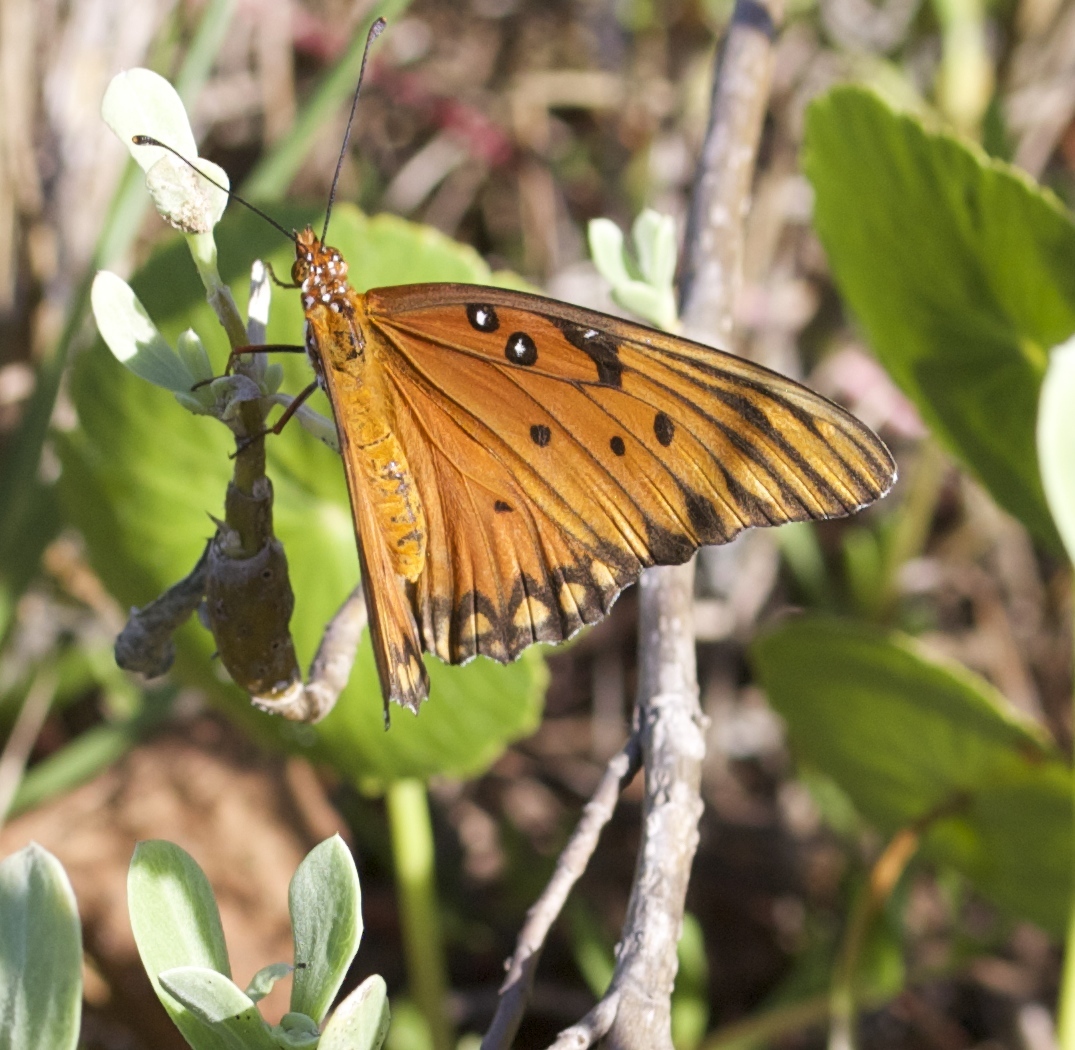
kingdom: Animalia
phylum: Arthropoda
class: Insecta
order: Lepidoptera
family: Nymphalidae
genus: Dione
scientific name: Dione vanillae
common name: Gulf fritillary
